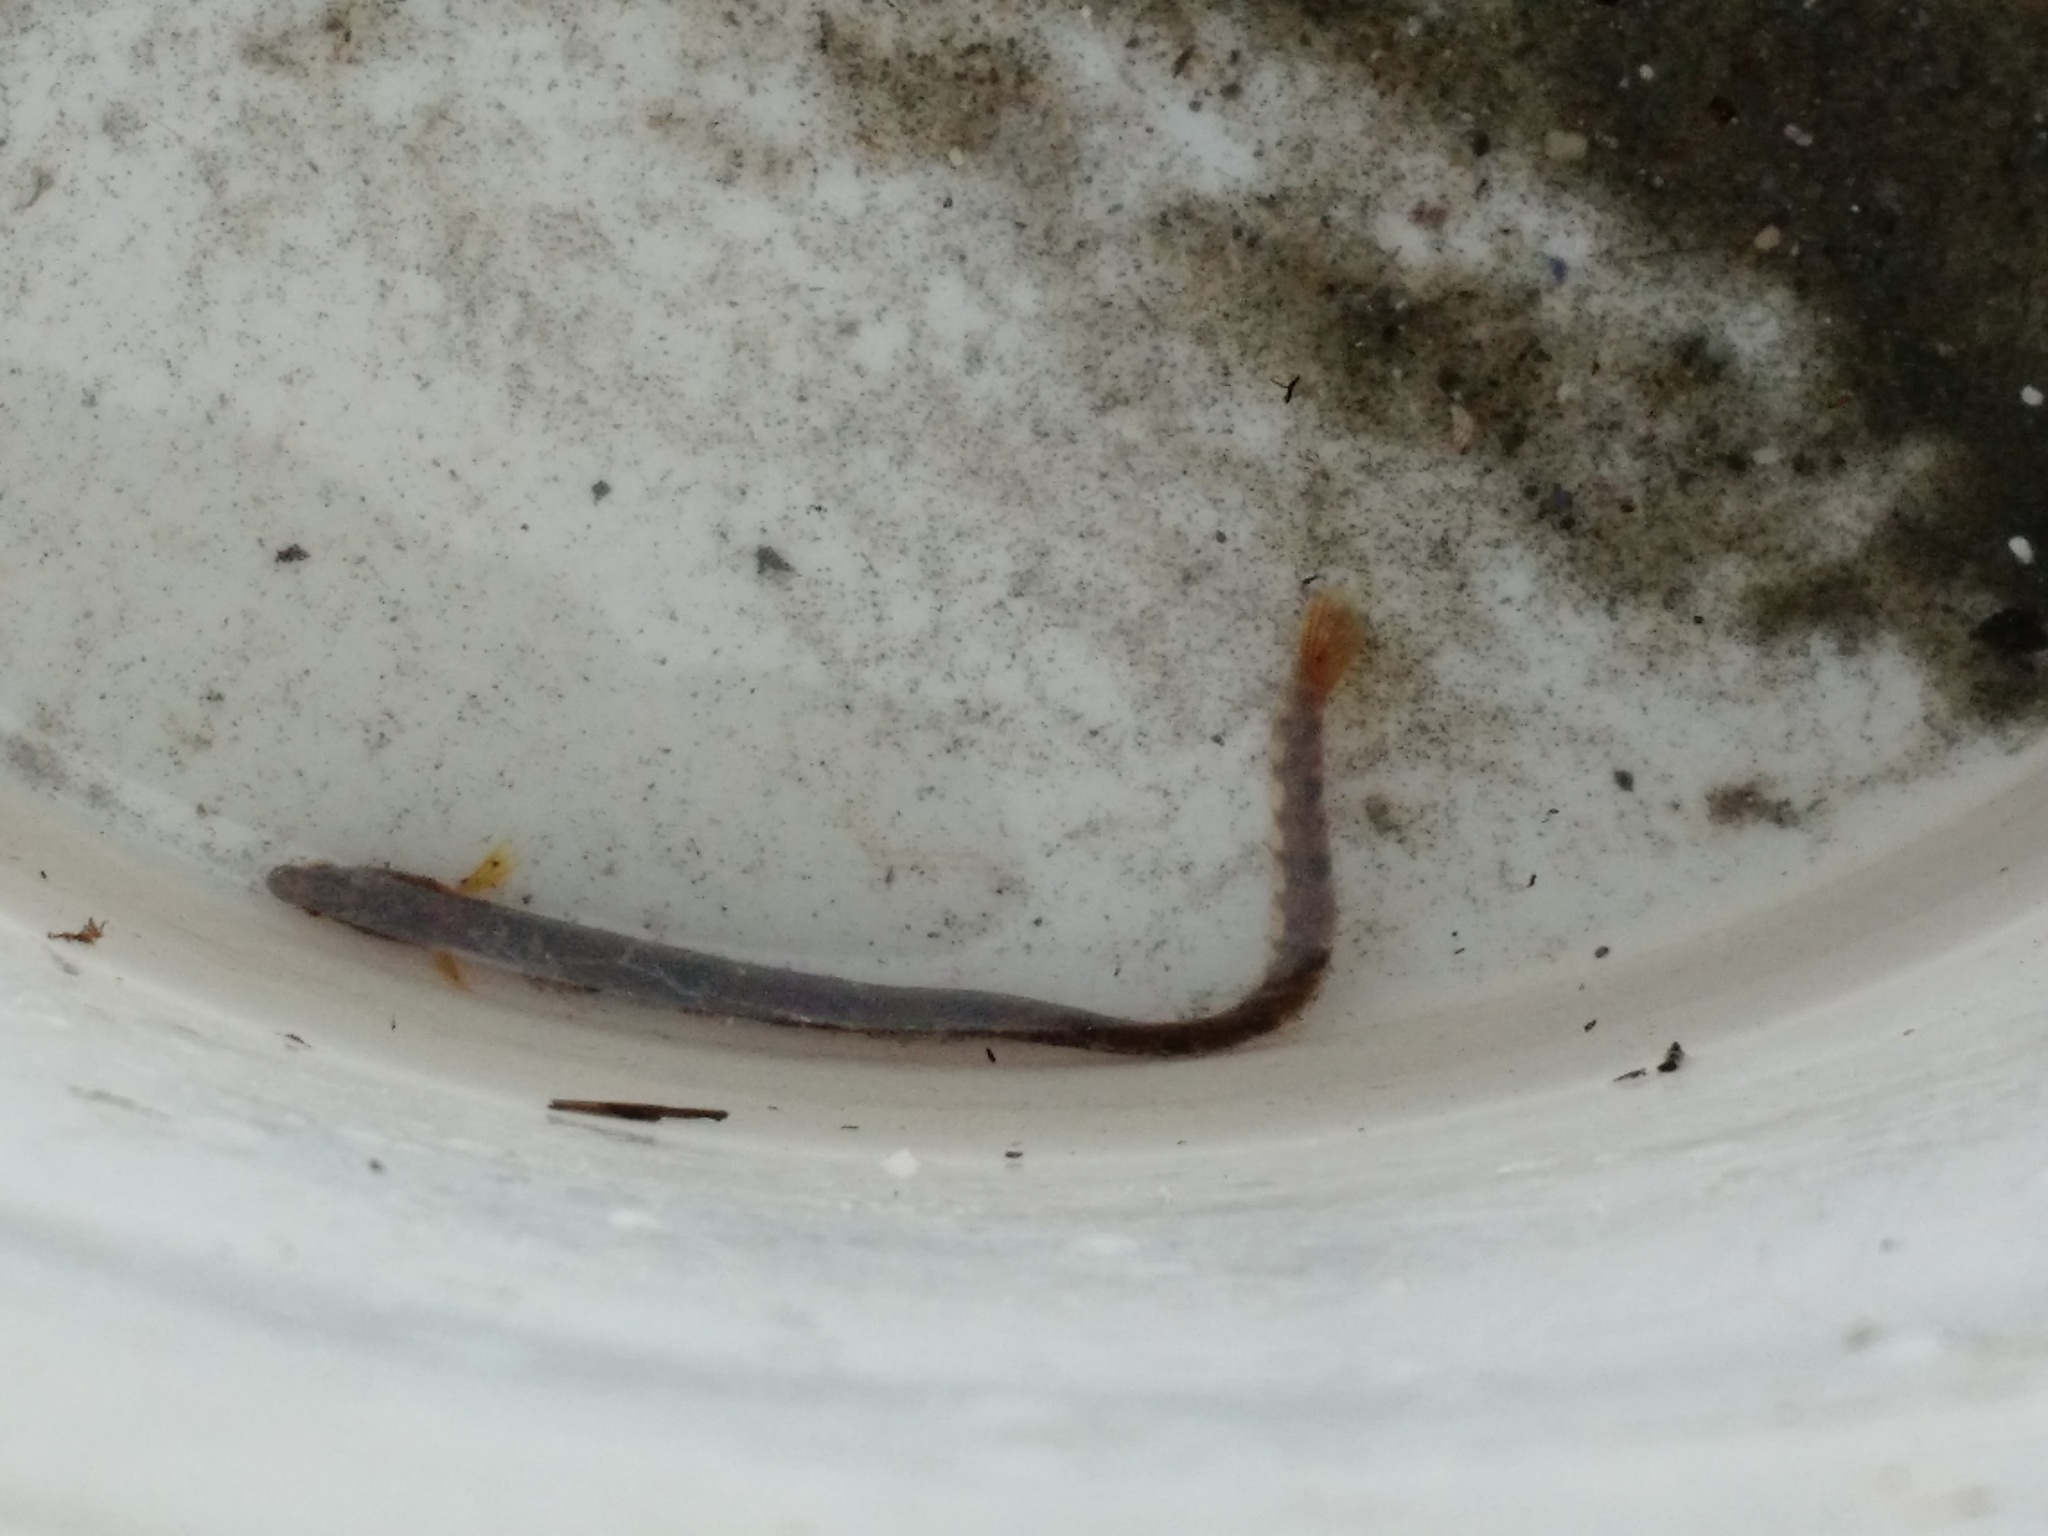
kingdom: Animalia
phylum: Chordata
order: Perciformes
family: Pholidae
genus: Pholis
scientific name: Pholis gunnellus
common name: Butterfish
